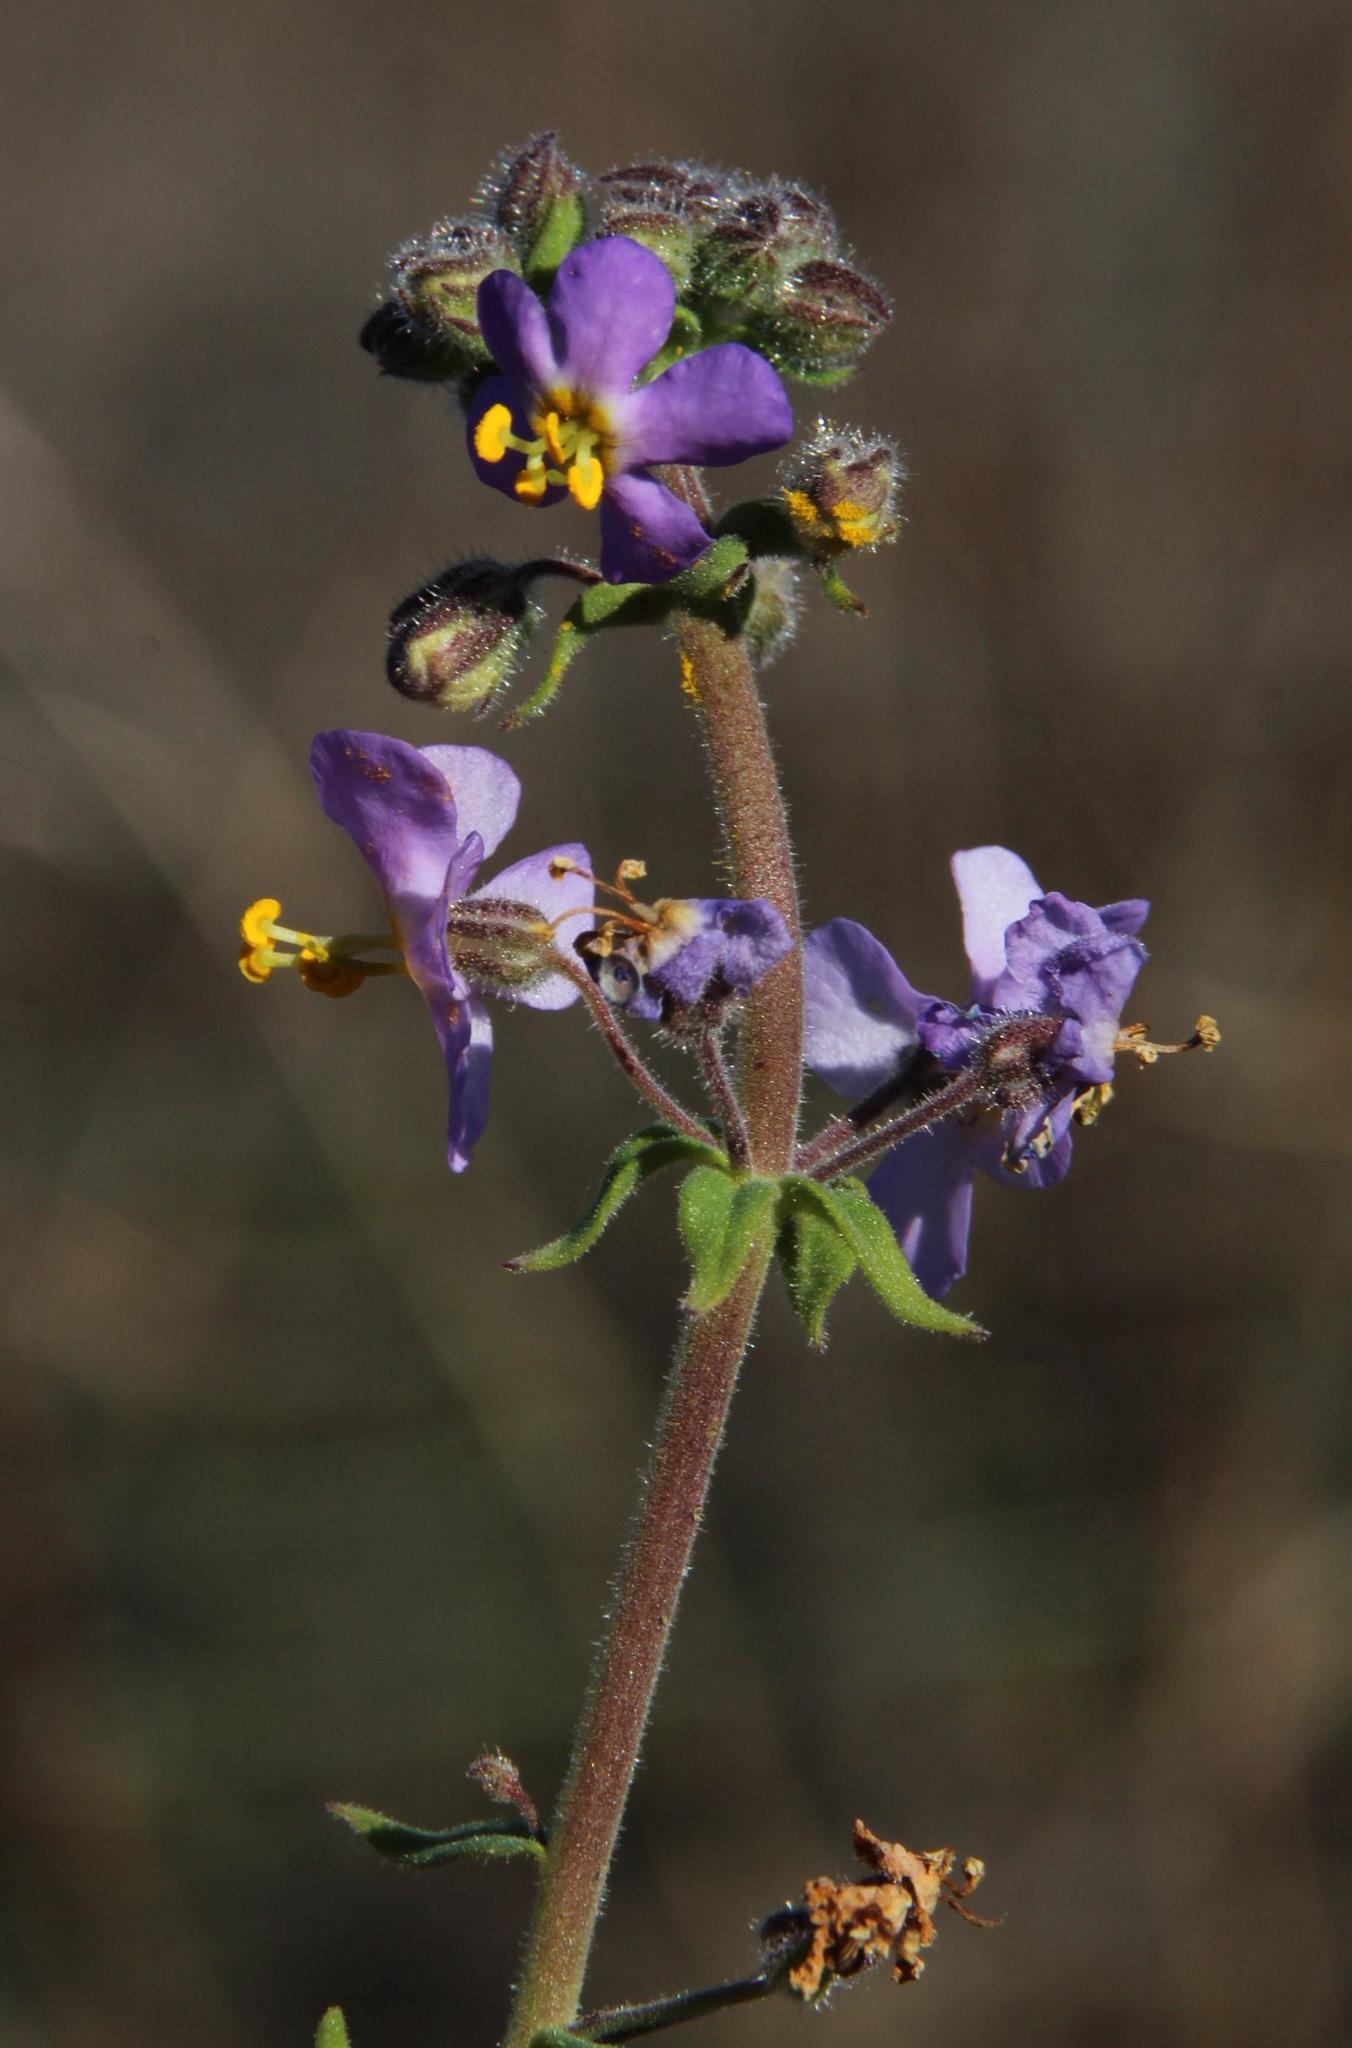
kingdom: Plantae
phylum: Tracheophyta
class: Magnoliopsida
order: Lamiales
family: Scrophulariaceae
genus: Chaenostoma
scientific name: Chaenostoma caeruleum
